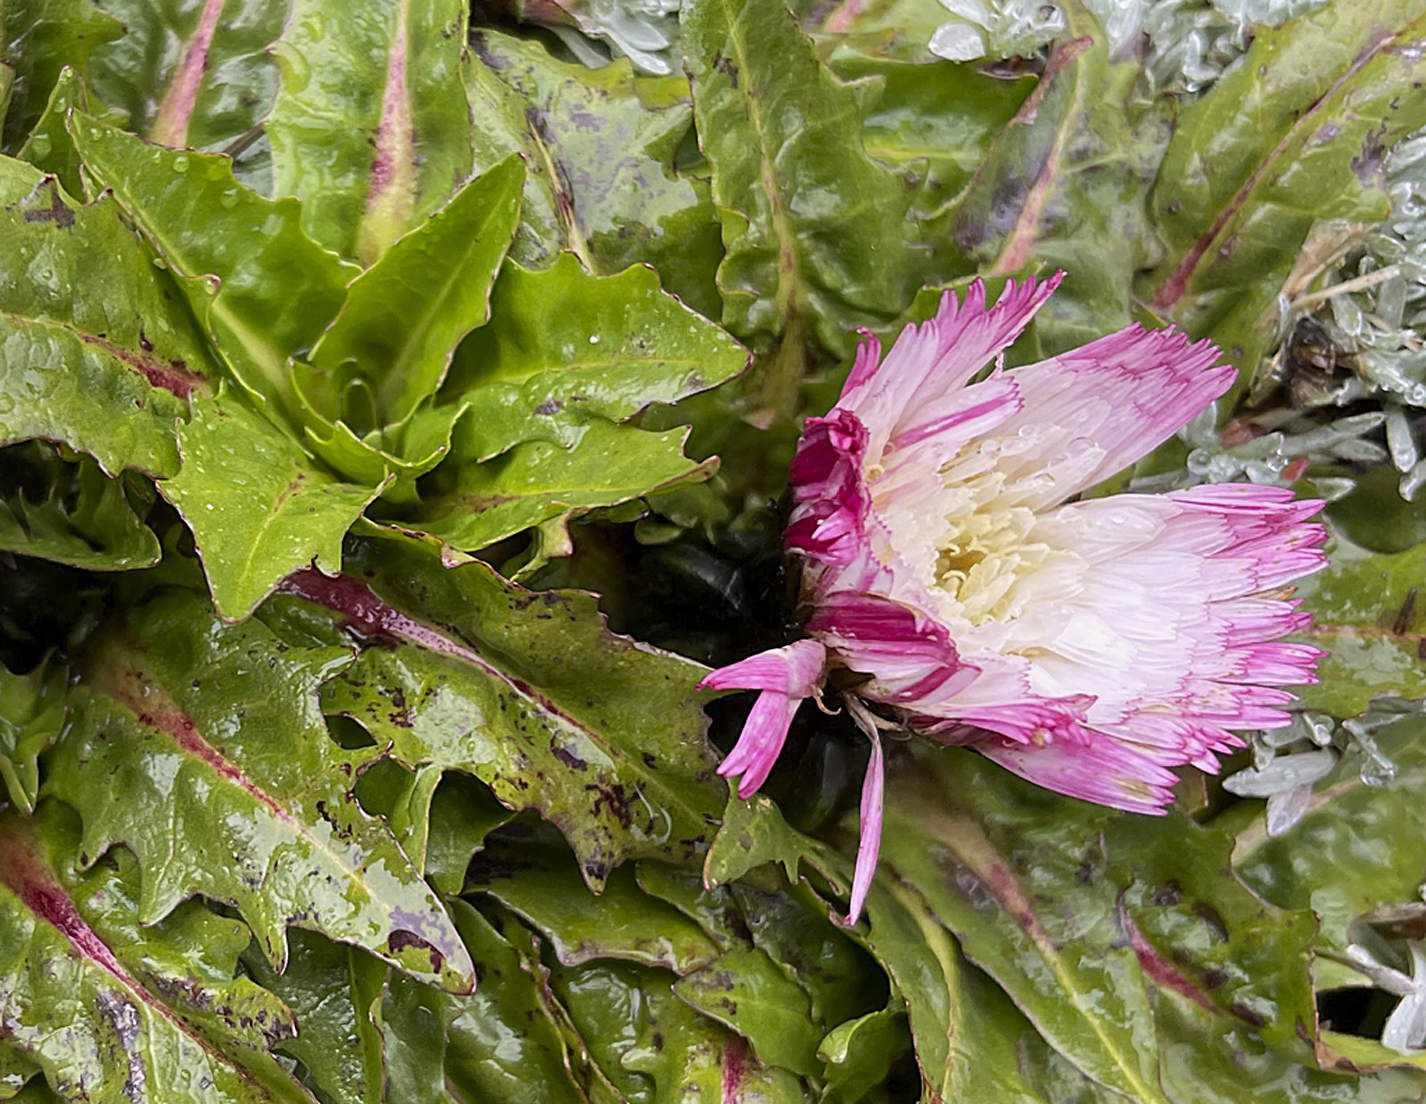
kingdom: Plantae
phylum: Tracheophyta
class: Magnoliopsida
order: Asterales
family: Asteraceae
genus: Hypochaeris
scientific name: Hypochaeris sessiliflora
